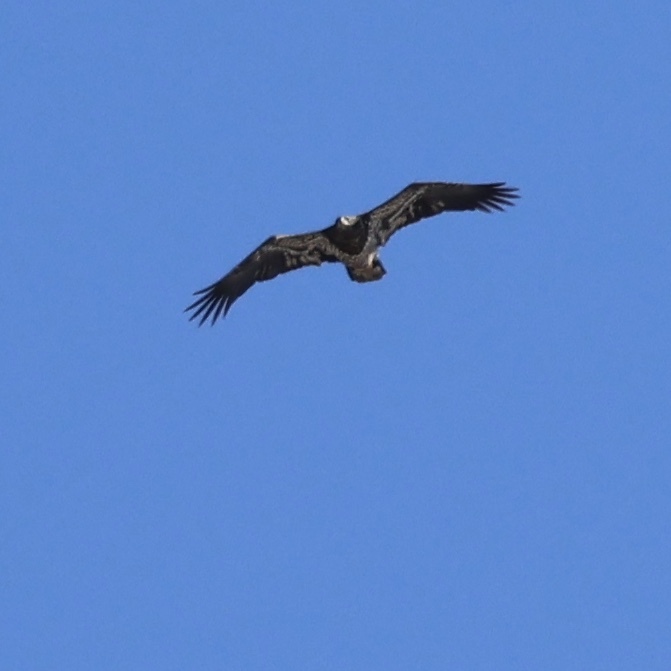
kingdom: Animalia
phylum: Chordata
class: Aves
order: Accipitriformes
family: Accipitridae
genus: Haliaeetus
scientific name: Haliaeetus leucocephalus
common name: Bald eagle
